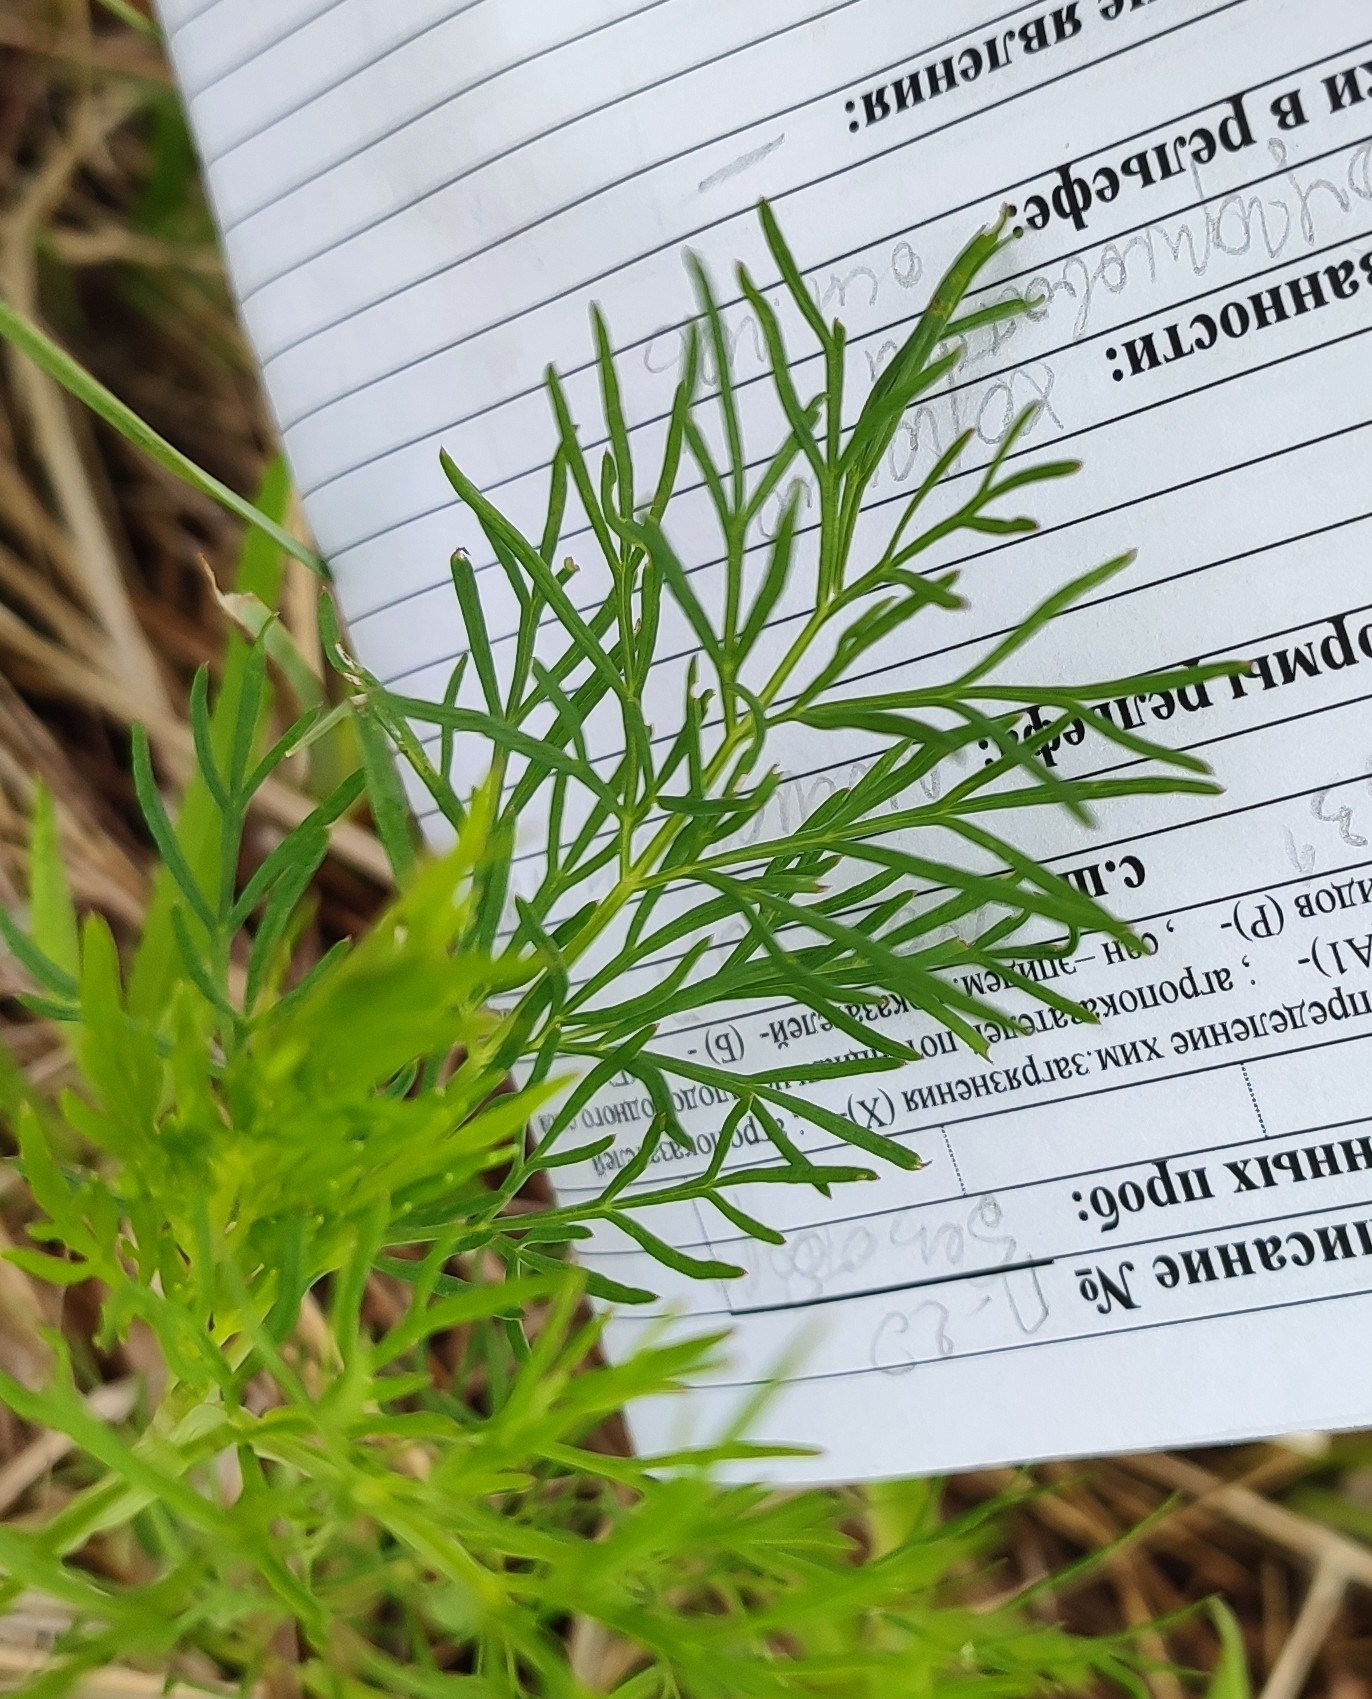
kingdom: Plantae
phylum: Tracheophyta
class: Magnoliopsida
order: Apiales
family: Apiaceae
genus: Kadenia
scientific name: Kadenia dubia
